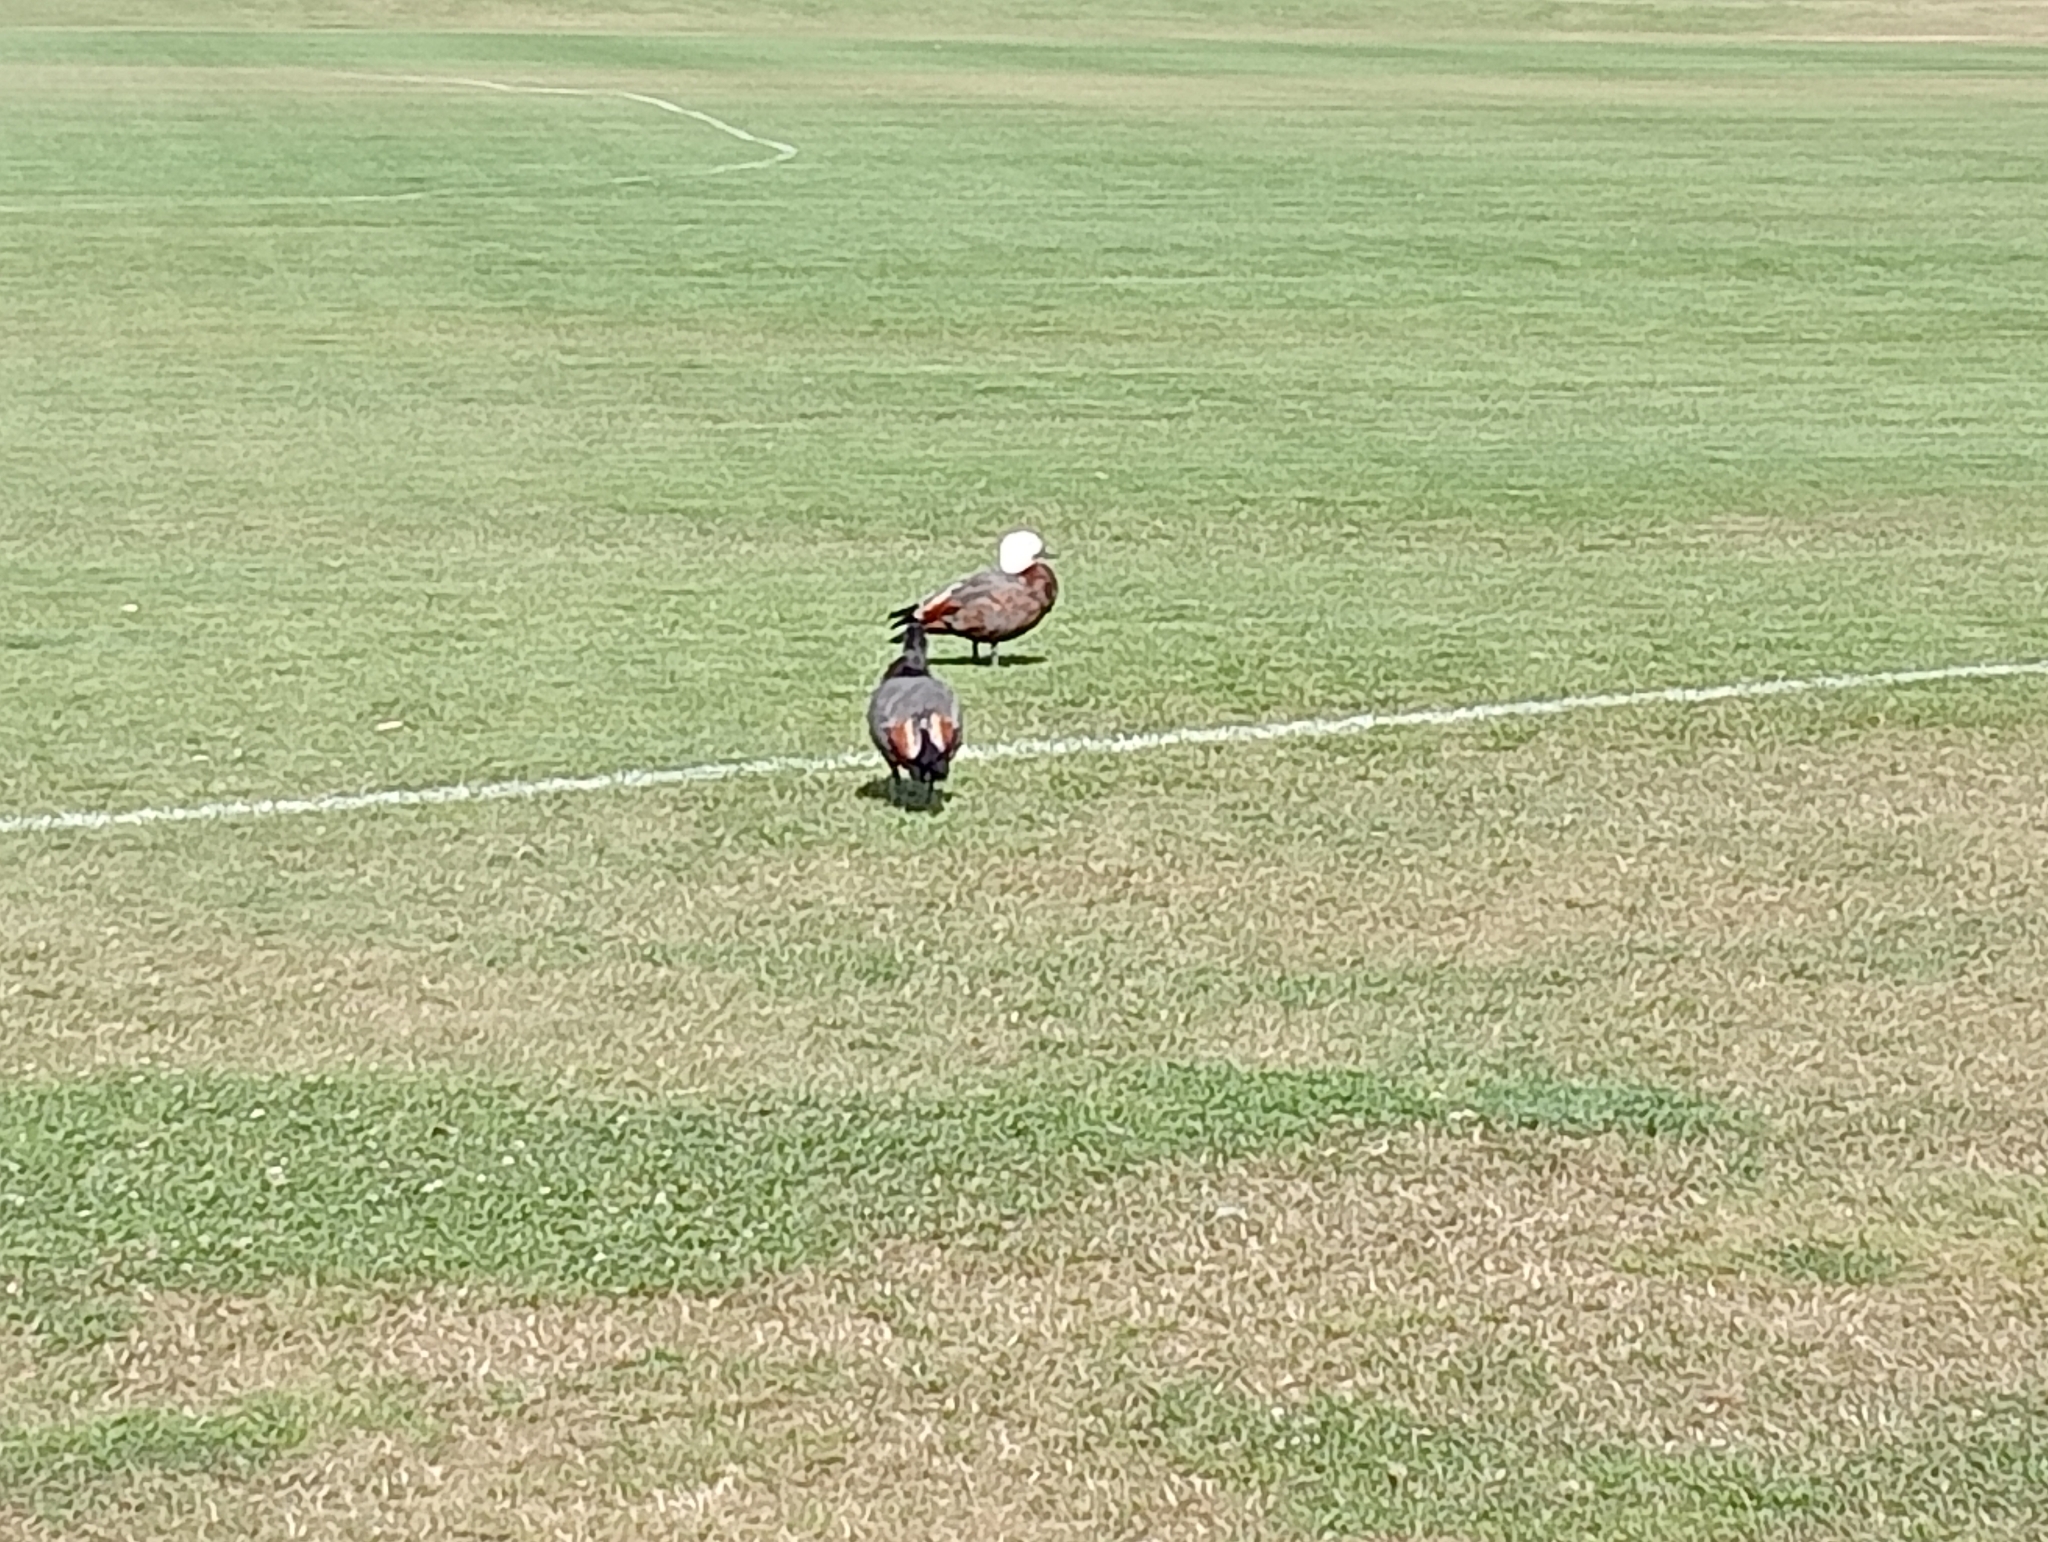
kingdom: Animalia
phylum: Chordata
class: Aves
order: Anseriformes
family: Anatidae
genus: Tadorna
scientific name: Tadorna variegata
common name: Paradise shelduck
